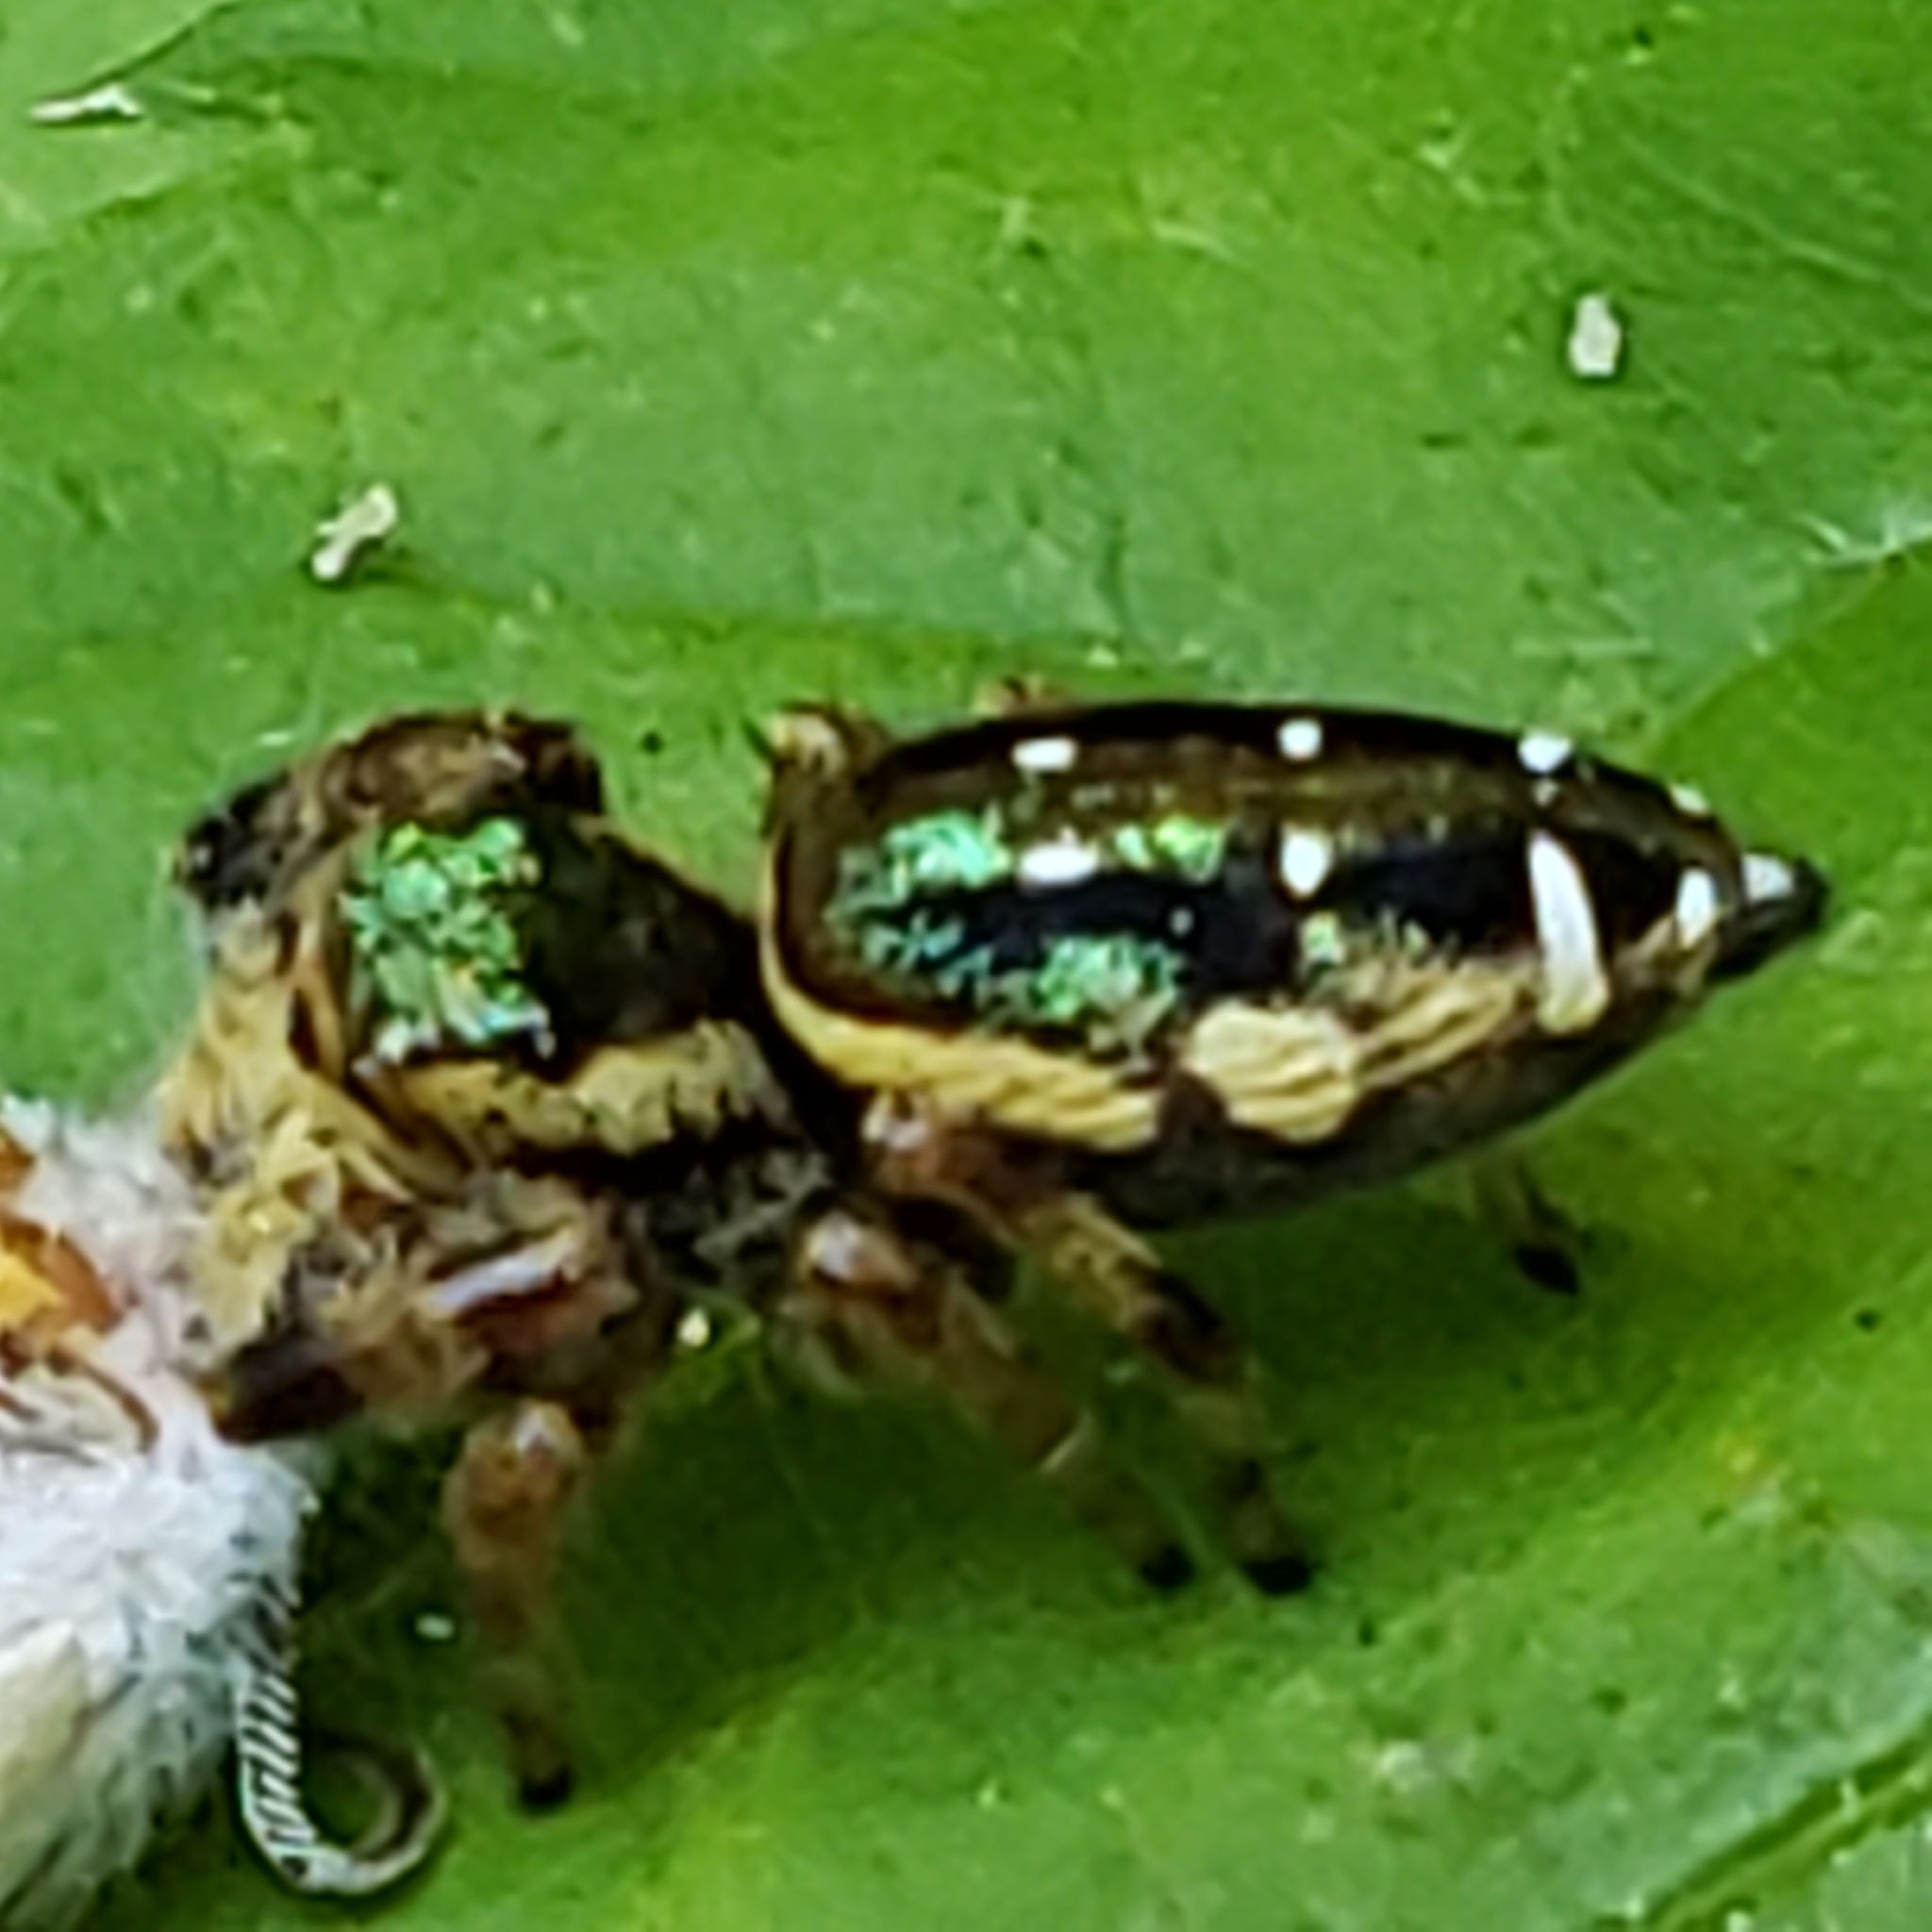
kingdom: Animalia
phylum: Arthropoda
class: Arachnida
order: Araneae
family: Salticidae
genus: Paraphidippus
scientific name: Paraphidippus aurantius
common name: Jumping spiders
